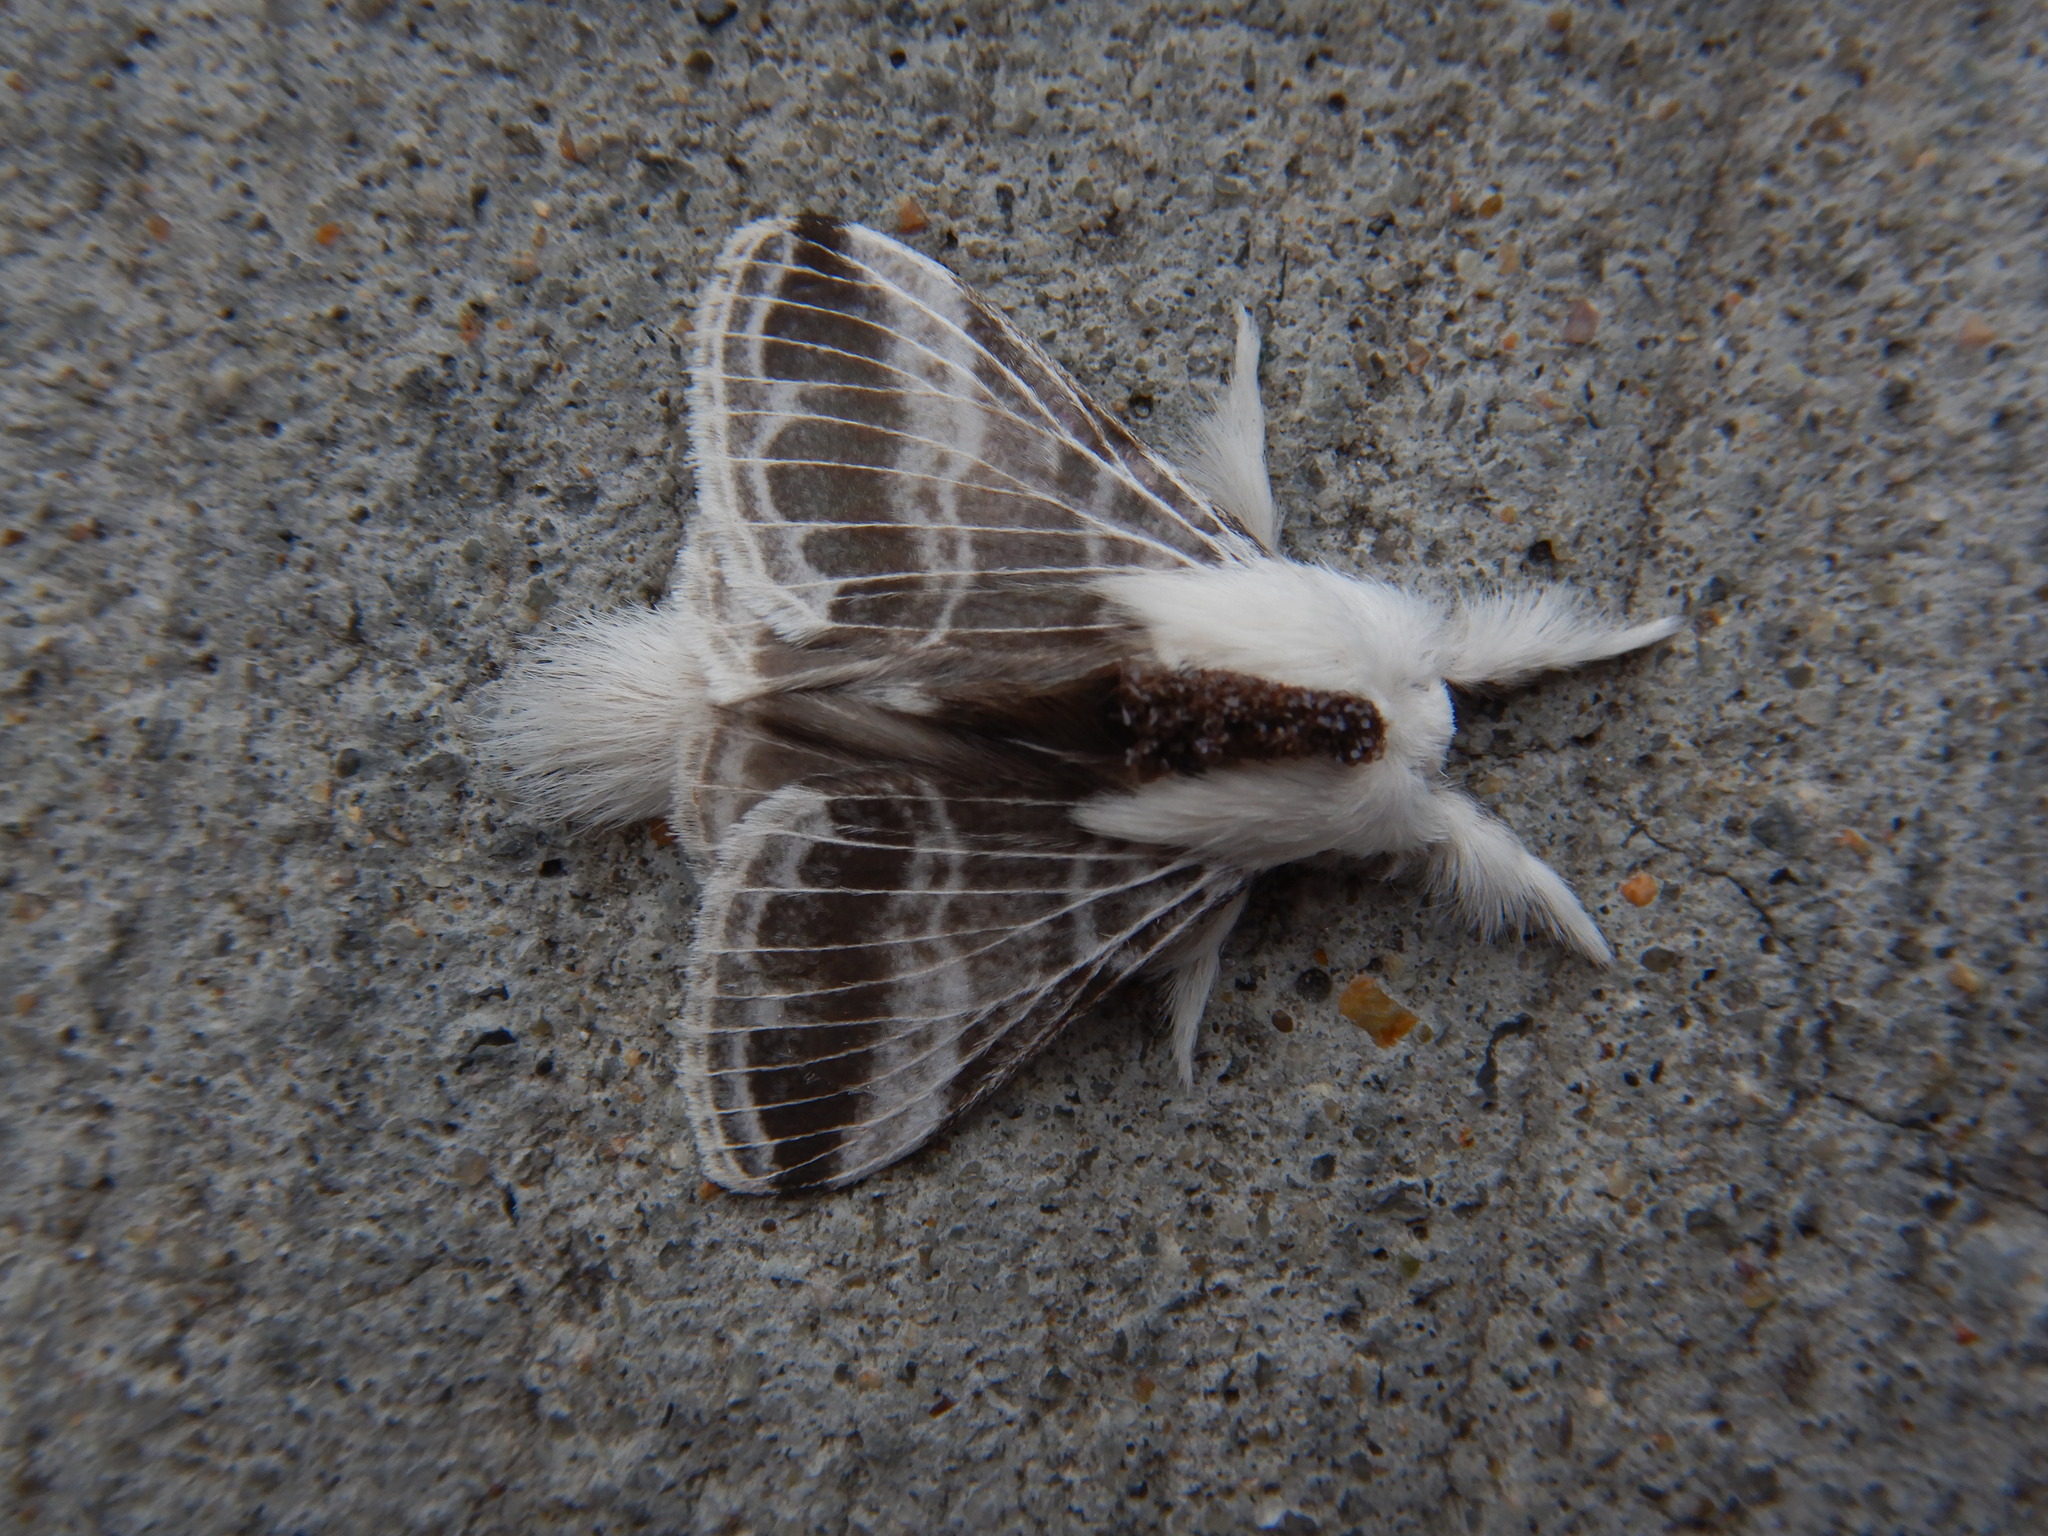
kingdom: Animalia
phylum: Arthropoda
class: Insecta
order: Lepidoptera
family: Lasiocampidae
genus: Tolype
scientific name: Tolype velleda
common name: Large tolype moth
